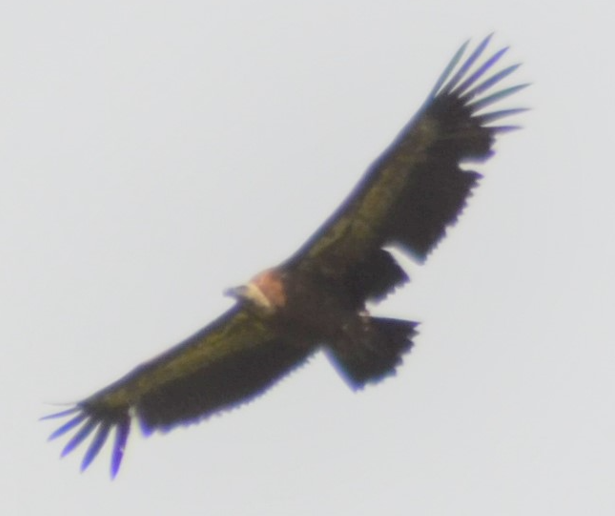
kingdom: Animalia
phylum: Chordata
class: Aves
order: Accipitriformes
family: Accipitridae
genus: Gyps
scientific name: Gyps fulvus
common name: Griffon vulture
